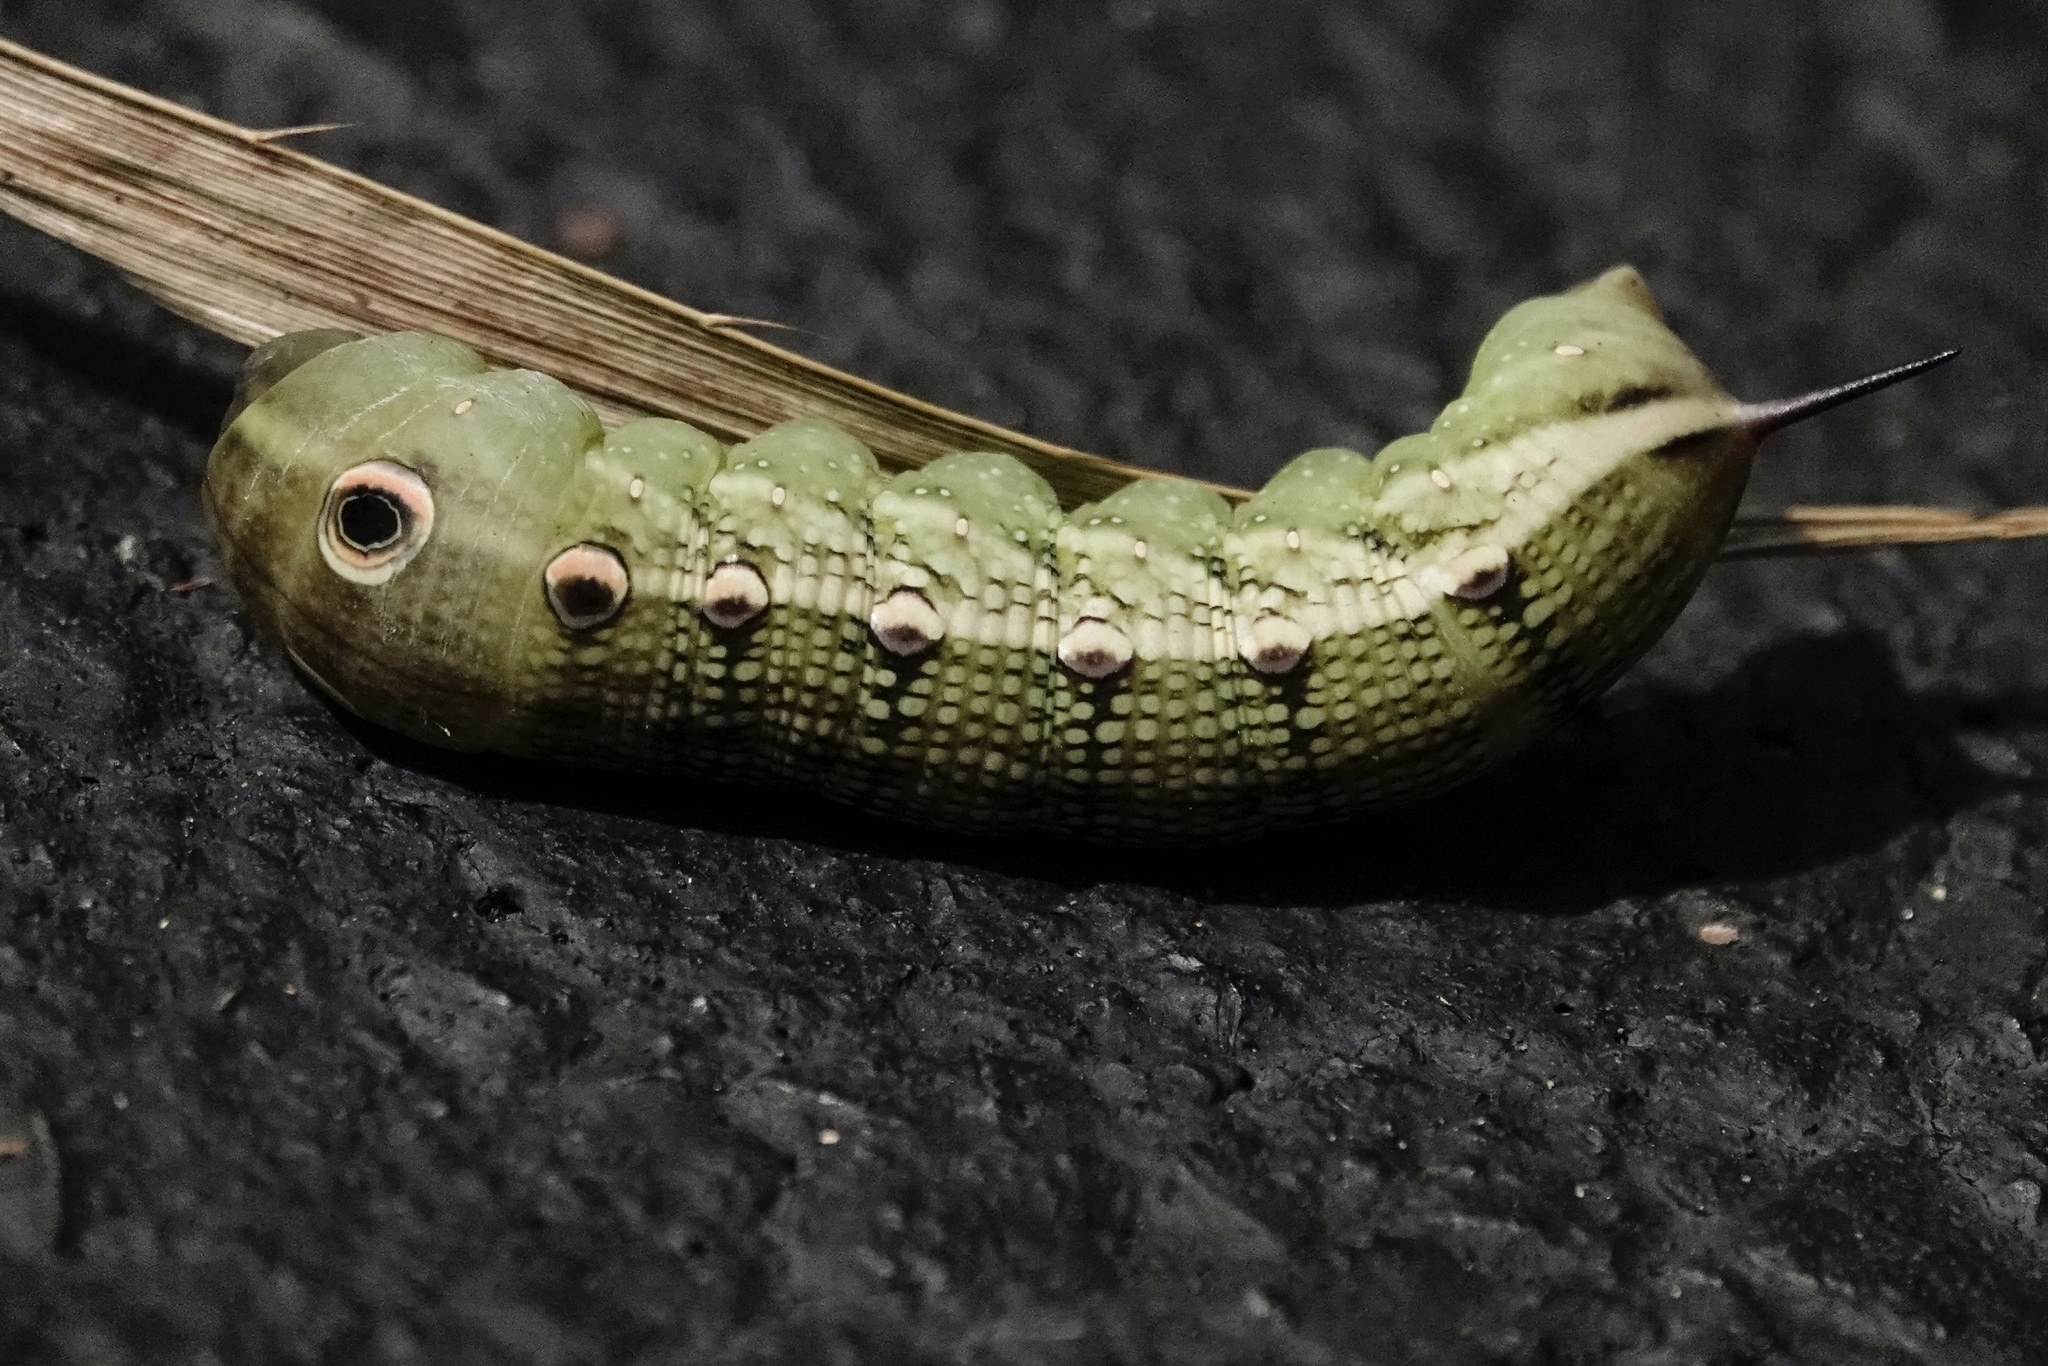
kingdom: Animalia
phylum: Arthropoda
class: Insecta
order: Lepidoptera
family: Sphingidae
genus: Xylophanes
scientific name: Xylophanes tersa
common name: Tersa sphinx
